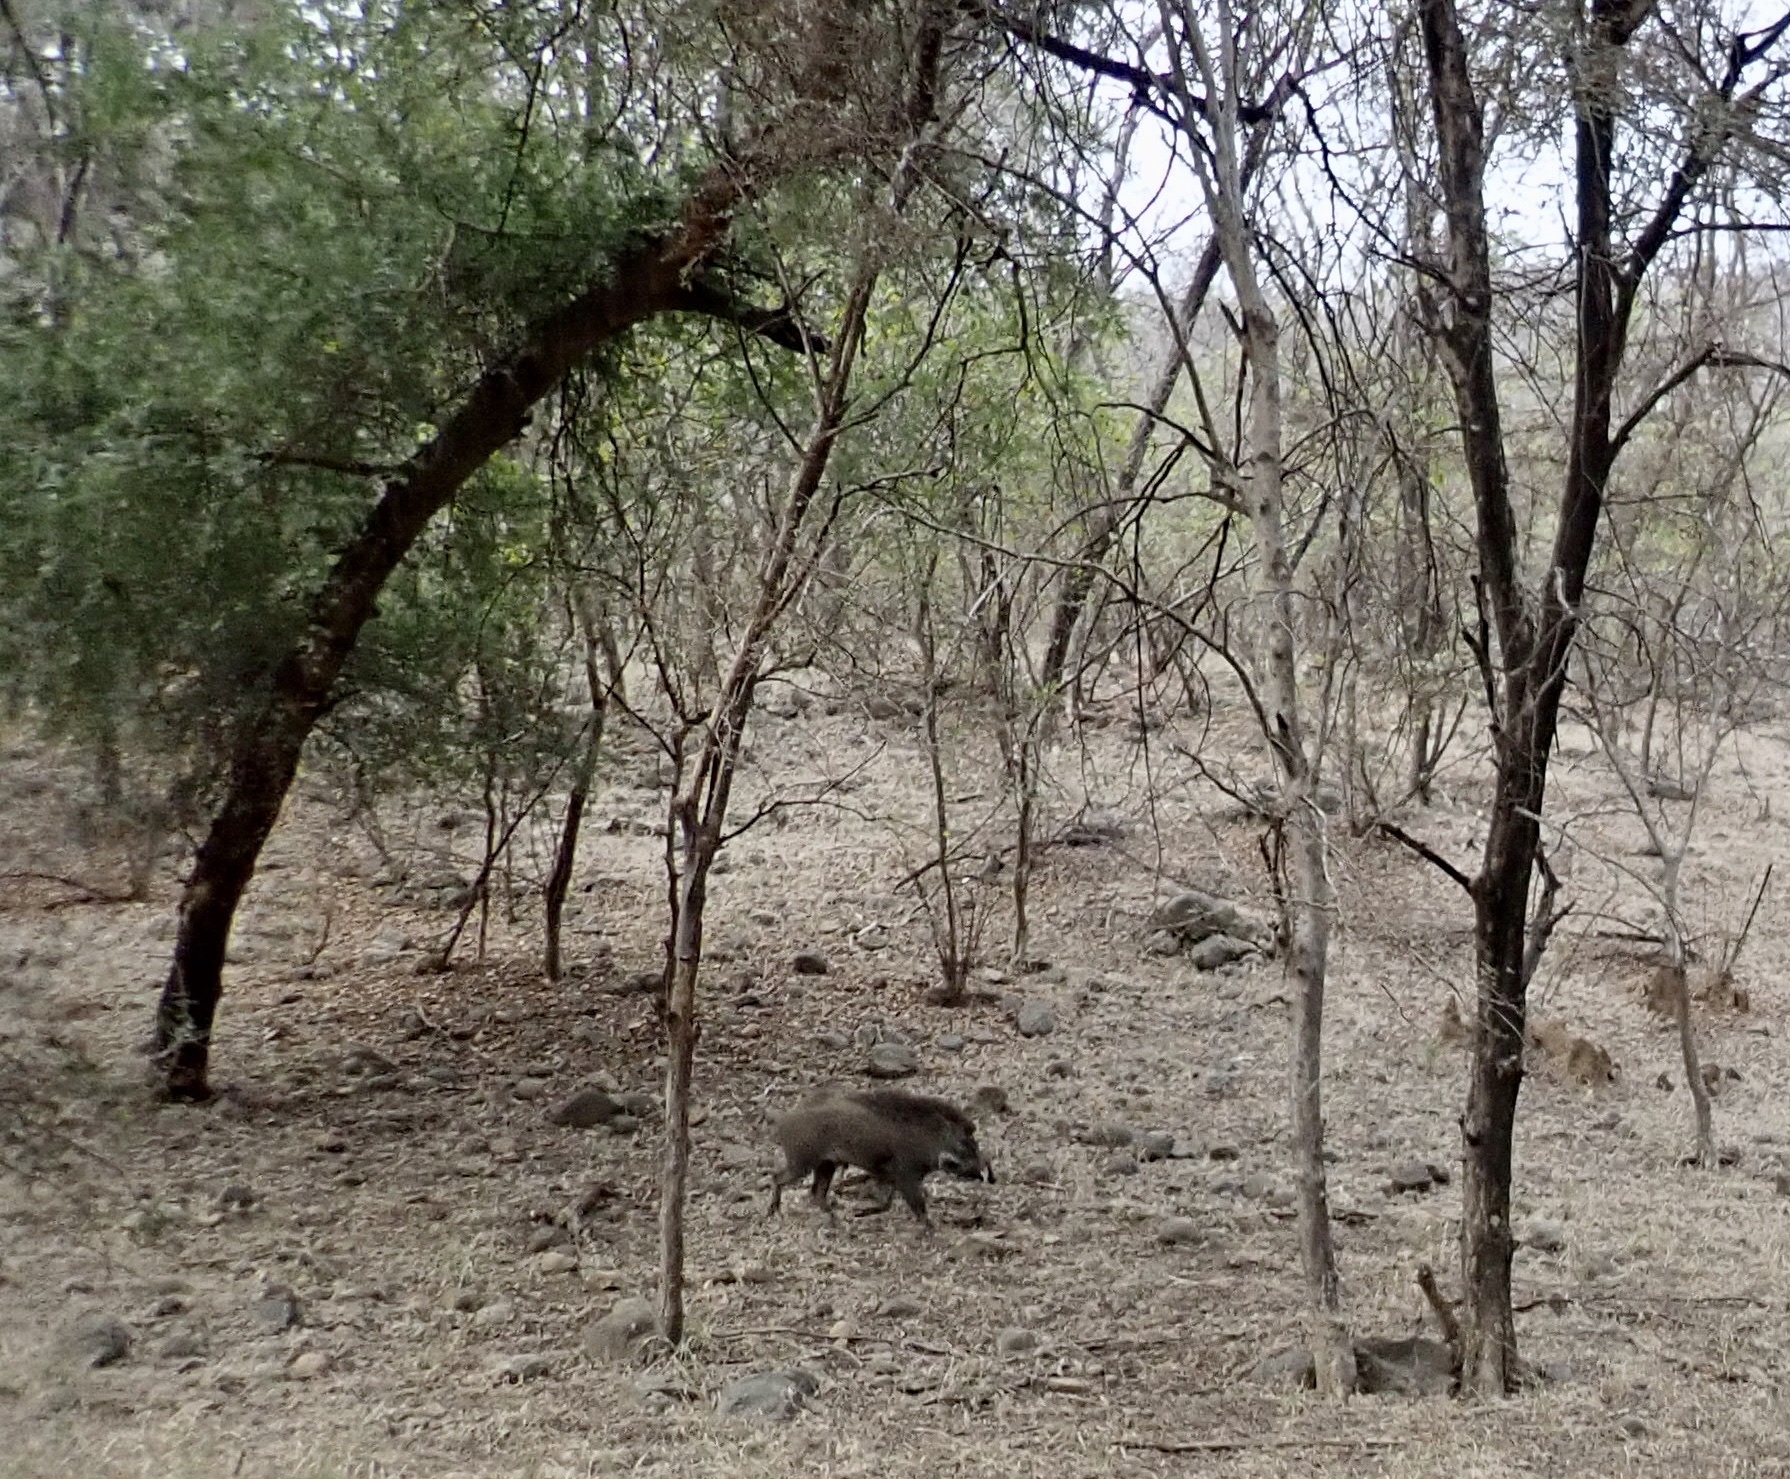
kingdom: Animalia
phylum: Chordata
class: Mammalia
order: Artiodactyla
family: Suidae
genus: Sus
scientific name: Sus scrofa
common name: Wild boar
